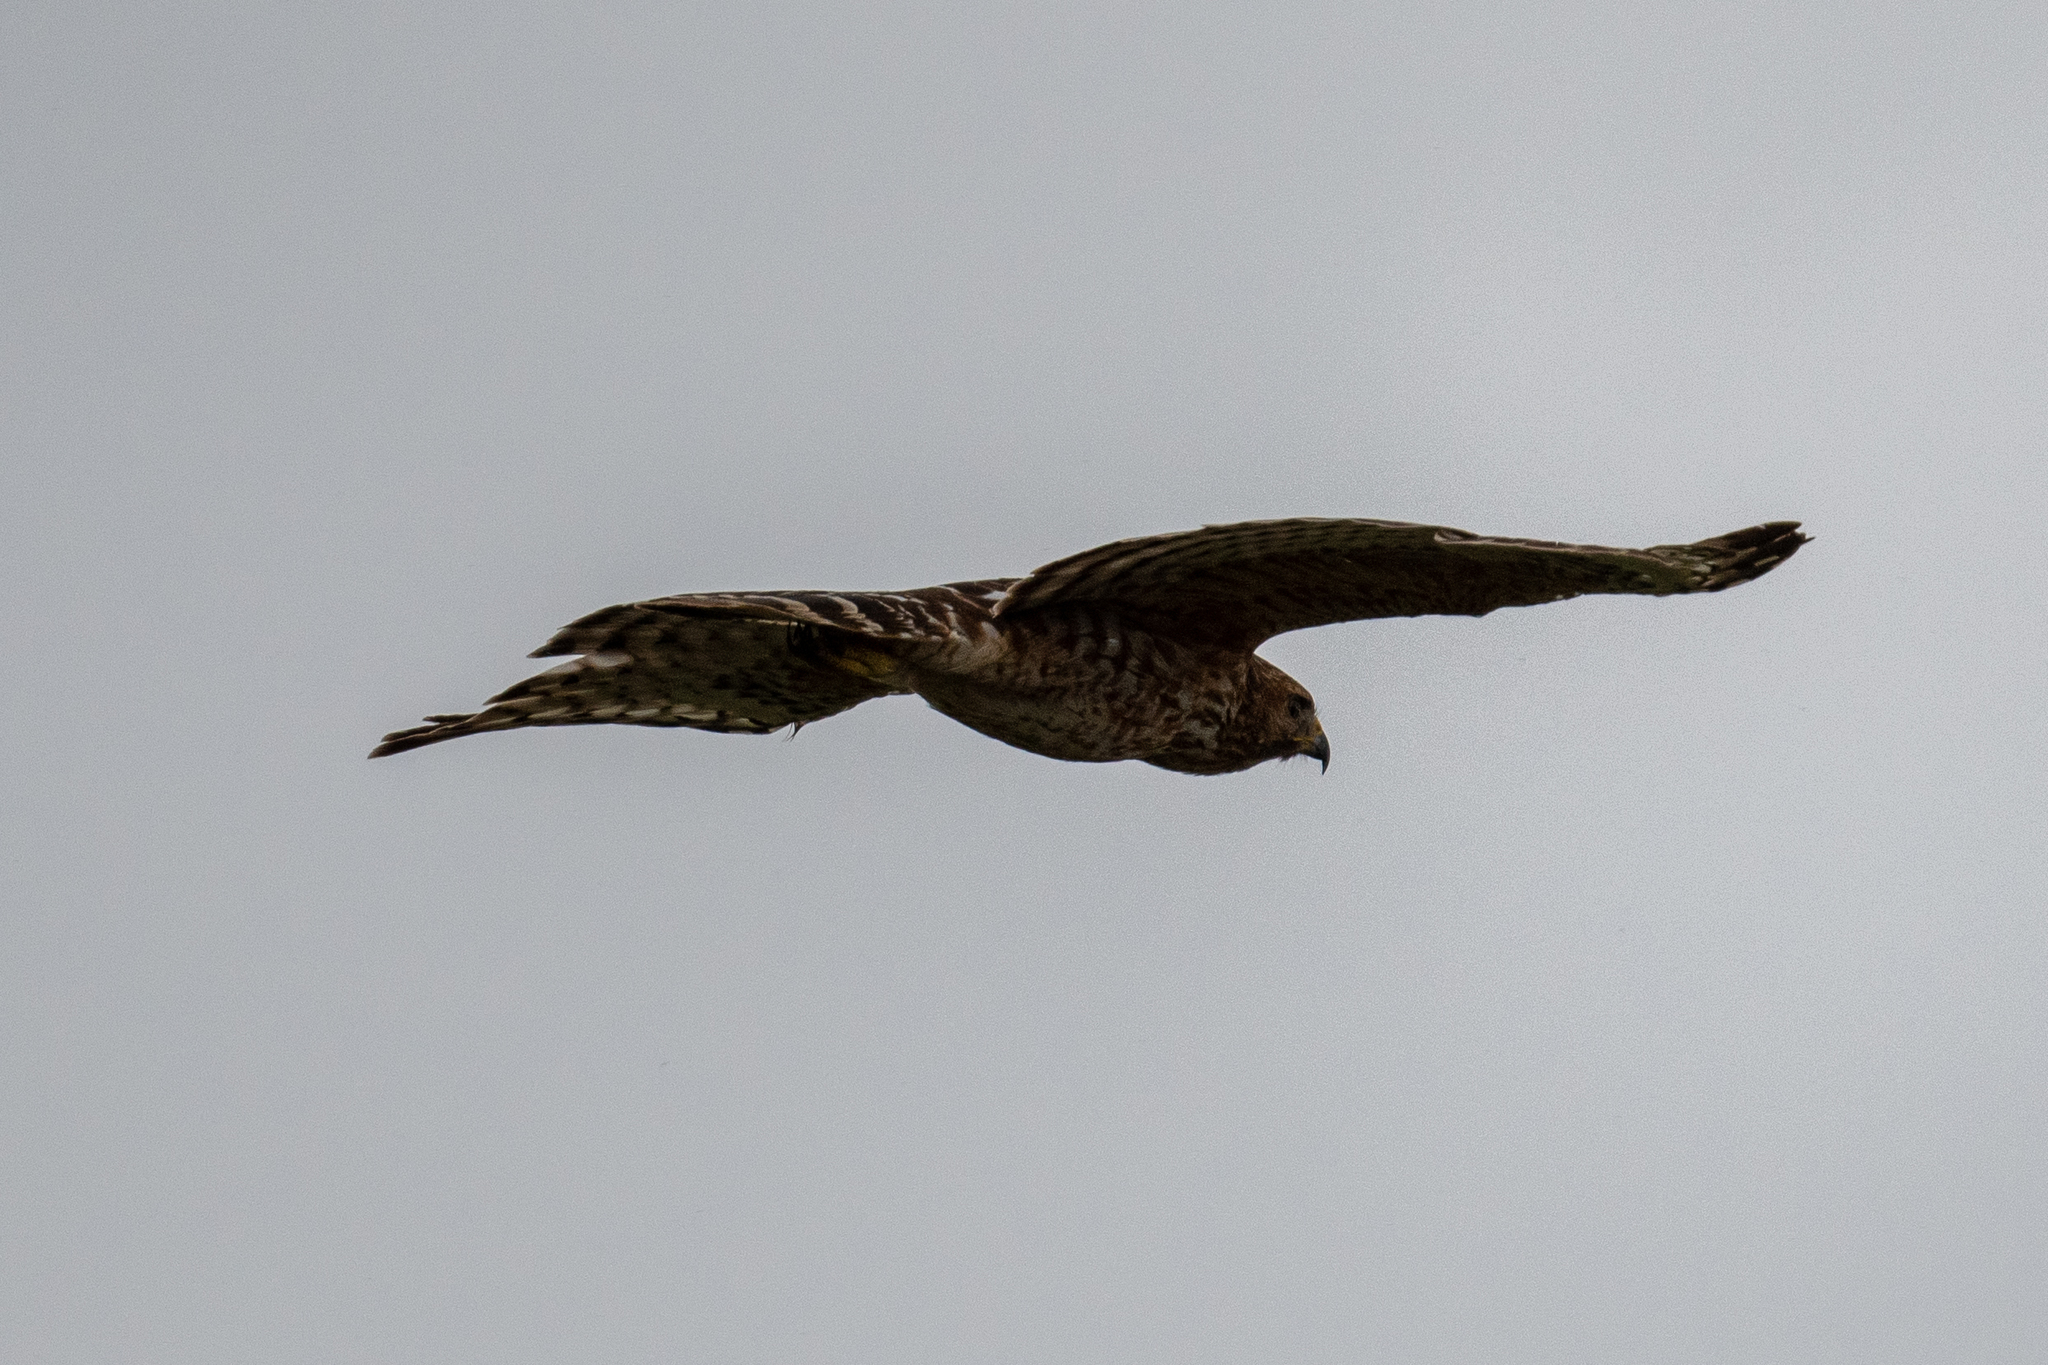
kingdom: Animalia
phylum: Chordata
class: Aves
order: Accipitriformes
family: Accipitridae
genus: Buteo
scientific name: Buteo lineatus
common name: Red-shouldered hawk
